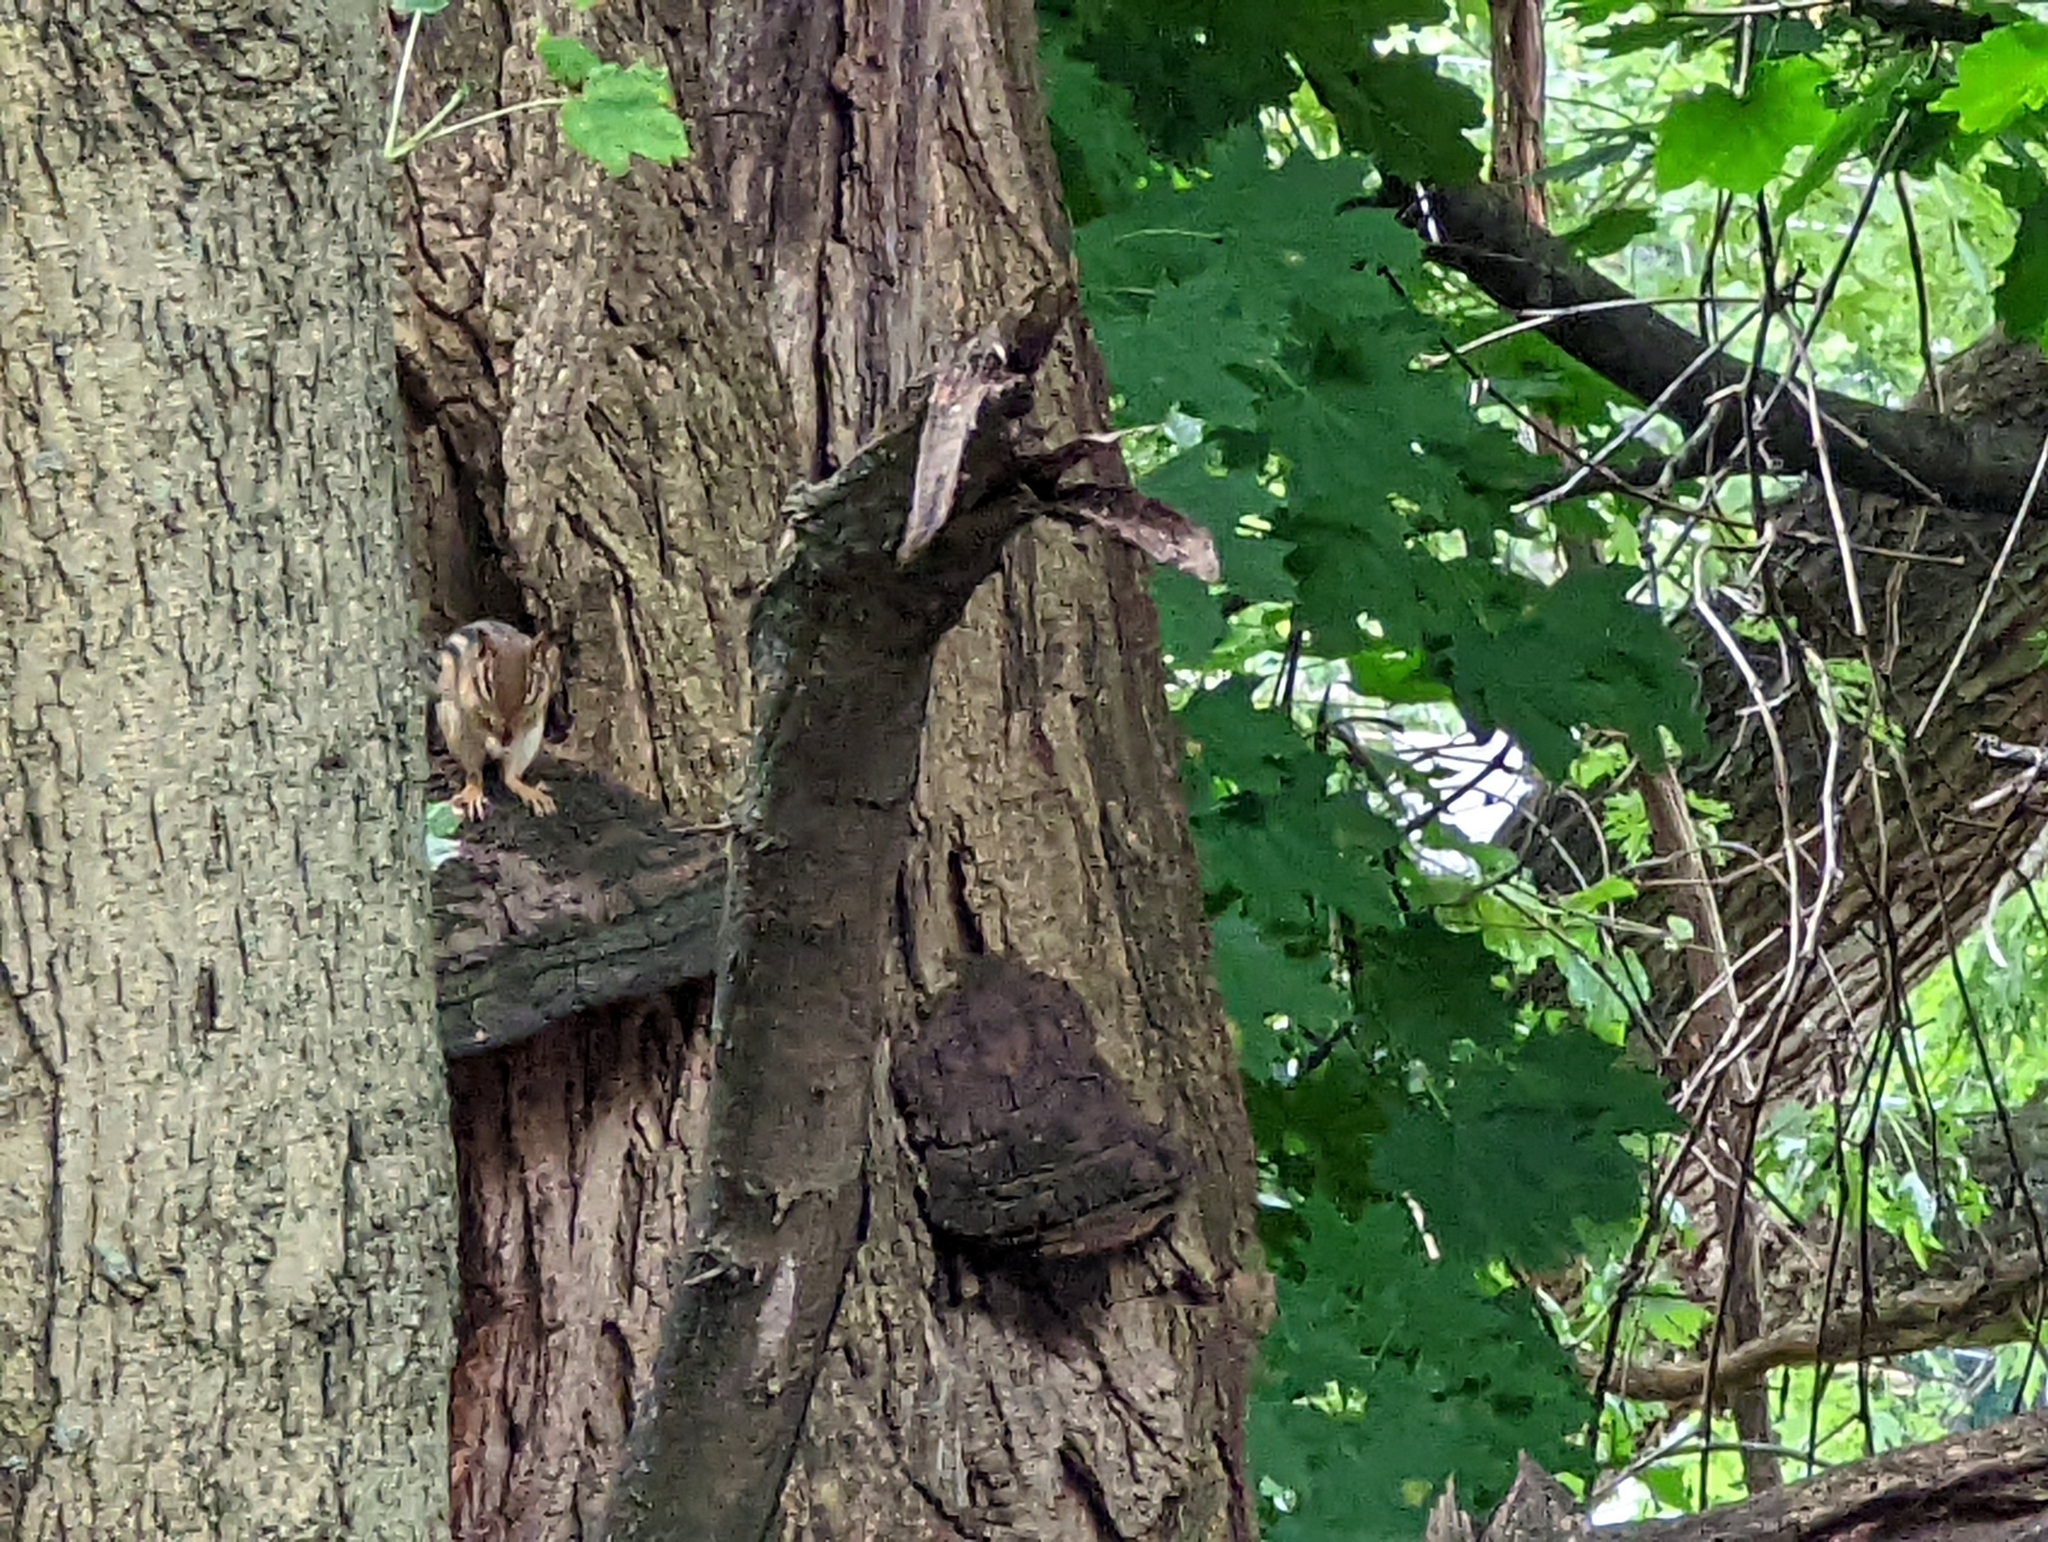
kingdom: Animalia
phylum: Chordata
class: Mammalia
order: Rodentia
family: Sciuridae
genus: Tamias
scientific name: Tamias striatus
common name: Eastern chipmunk
